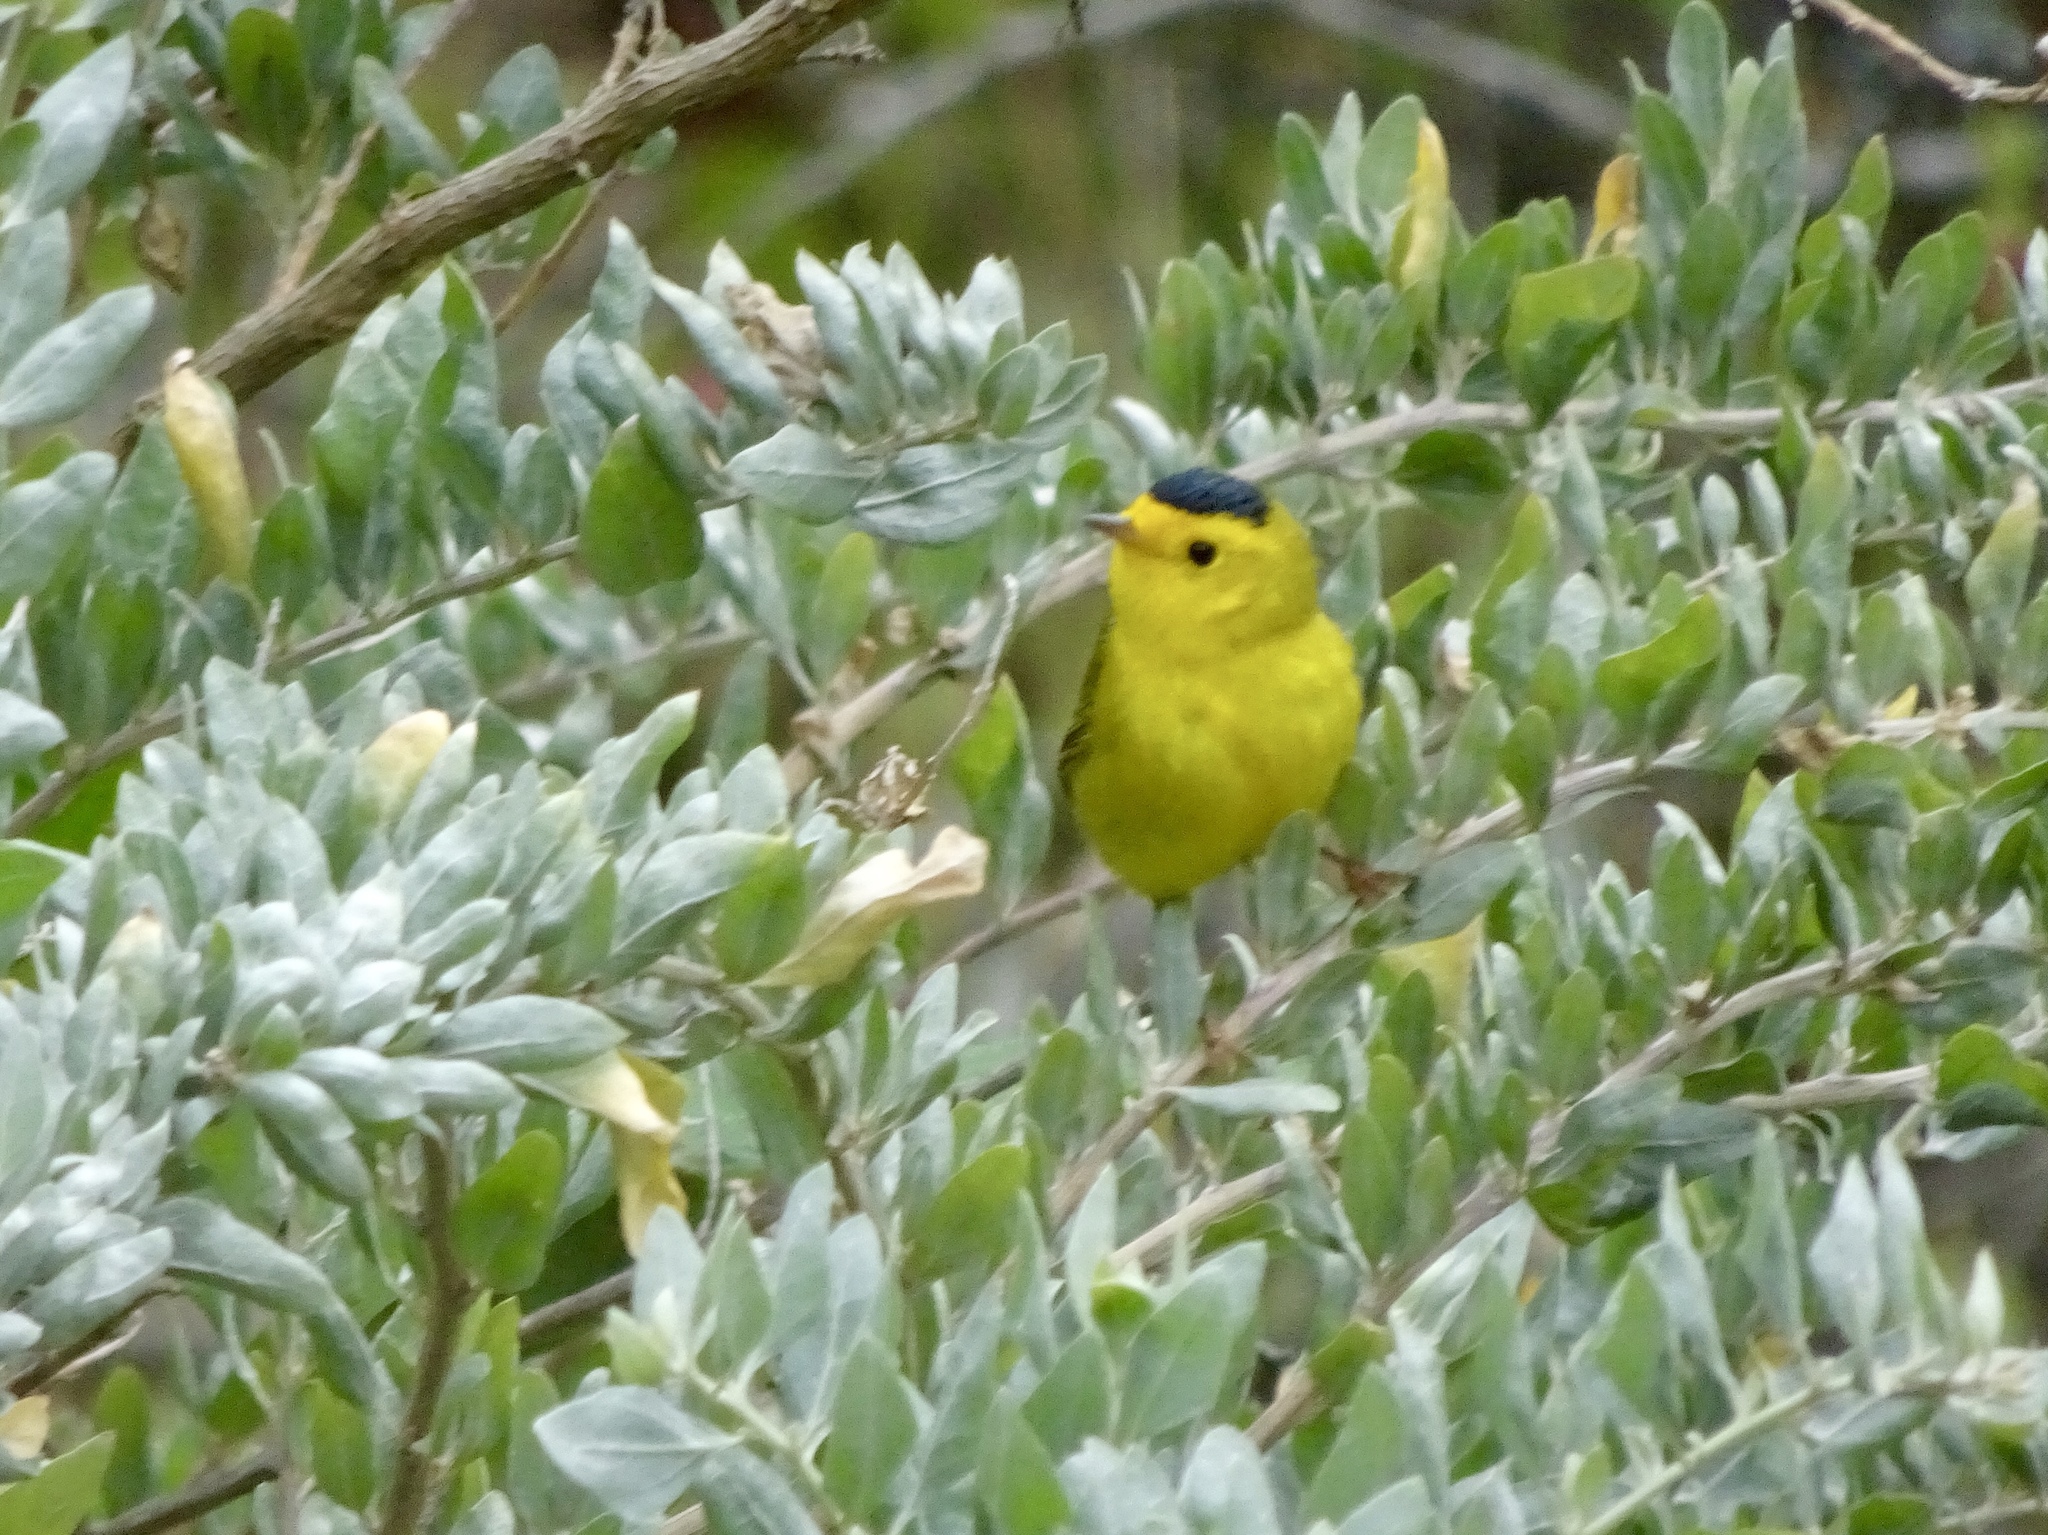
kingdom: Animalia
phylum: Chordata
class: Aves
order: Passeriformes
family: Parulidae
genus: Cardellina
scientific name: Cardellina pusilla
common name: Wilson's warbler
